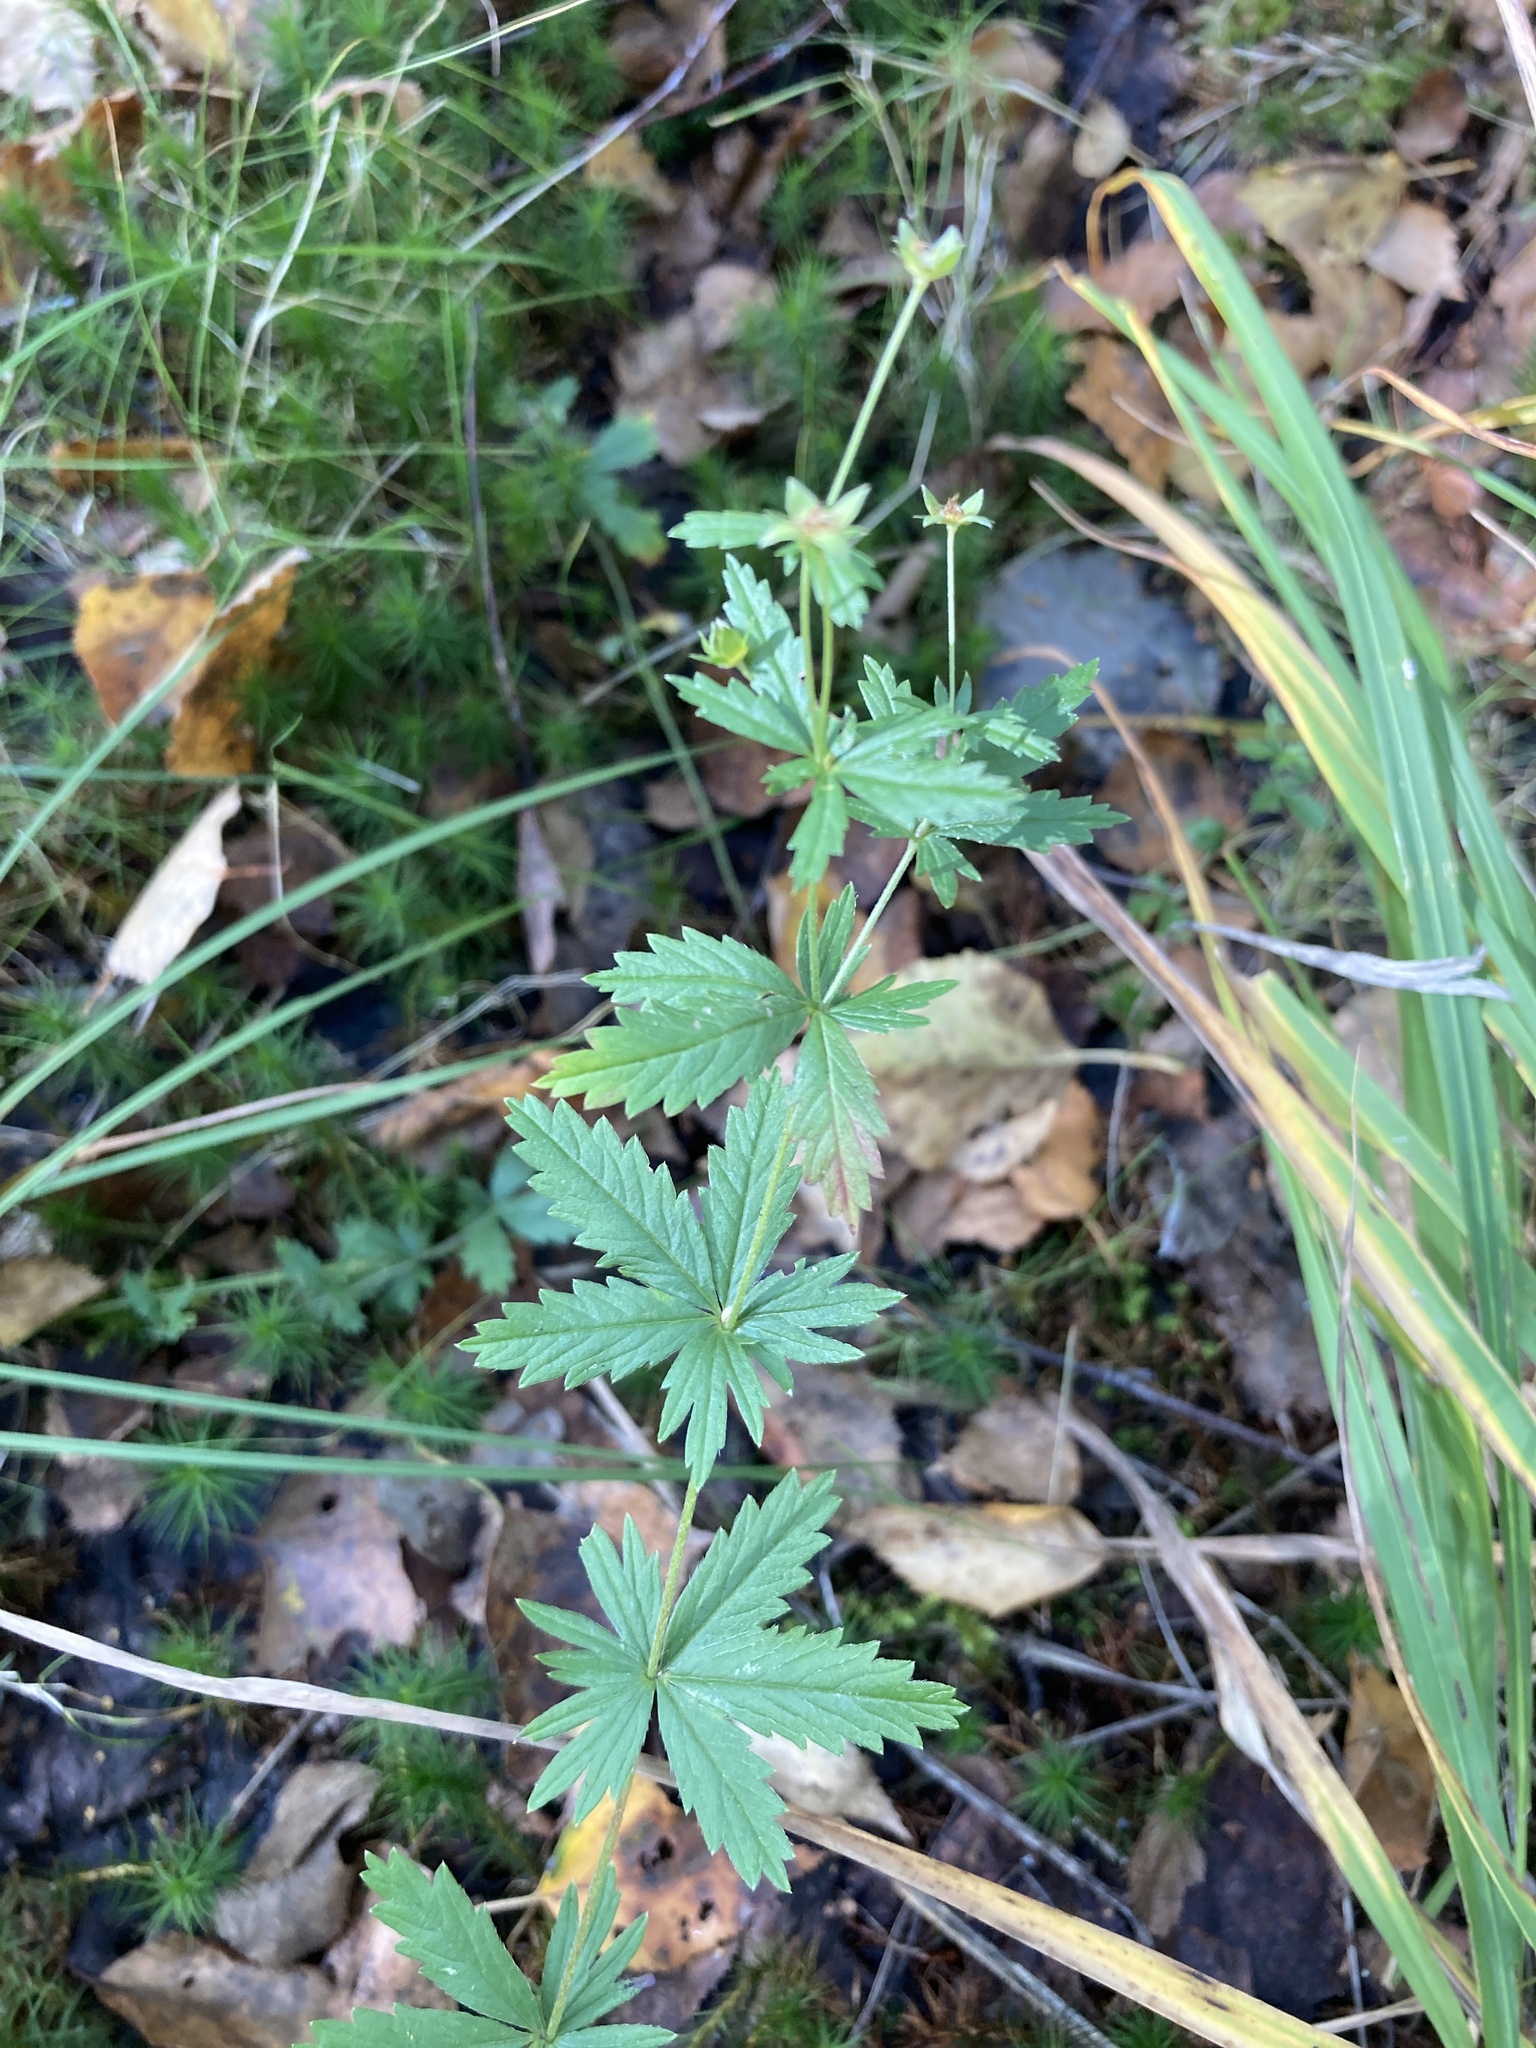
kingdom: Plantae
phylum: Tracheophyta
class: Magnoliopsida
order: Rosales
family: Rosaceae
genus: Potentilla
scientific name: Potentilla erecta
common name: Tormentil
